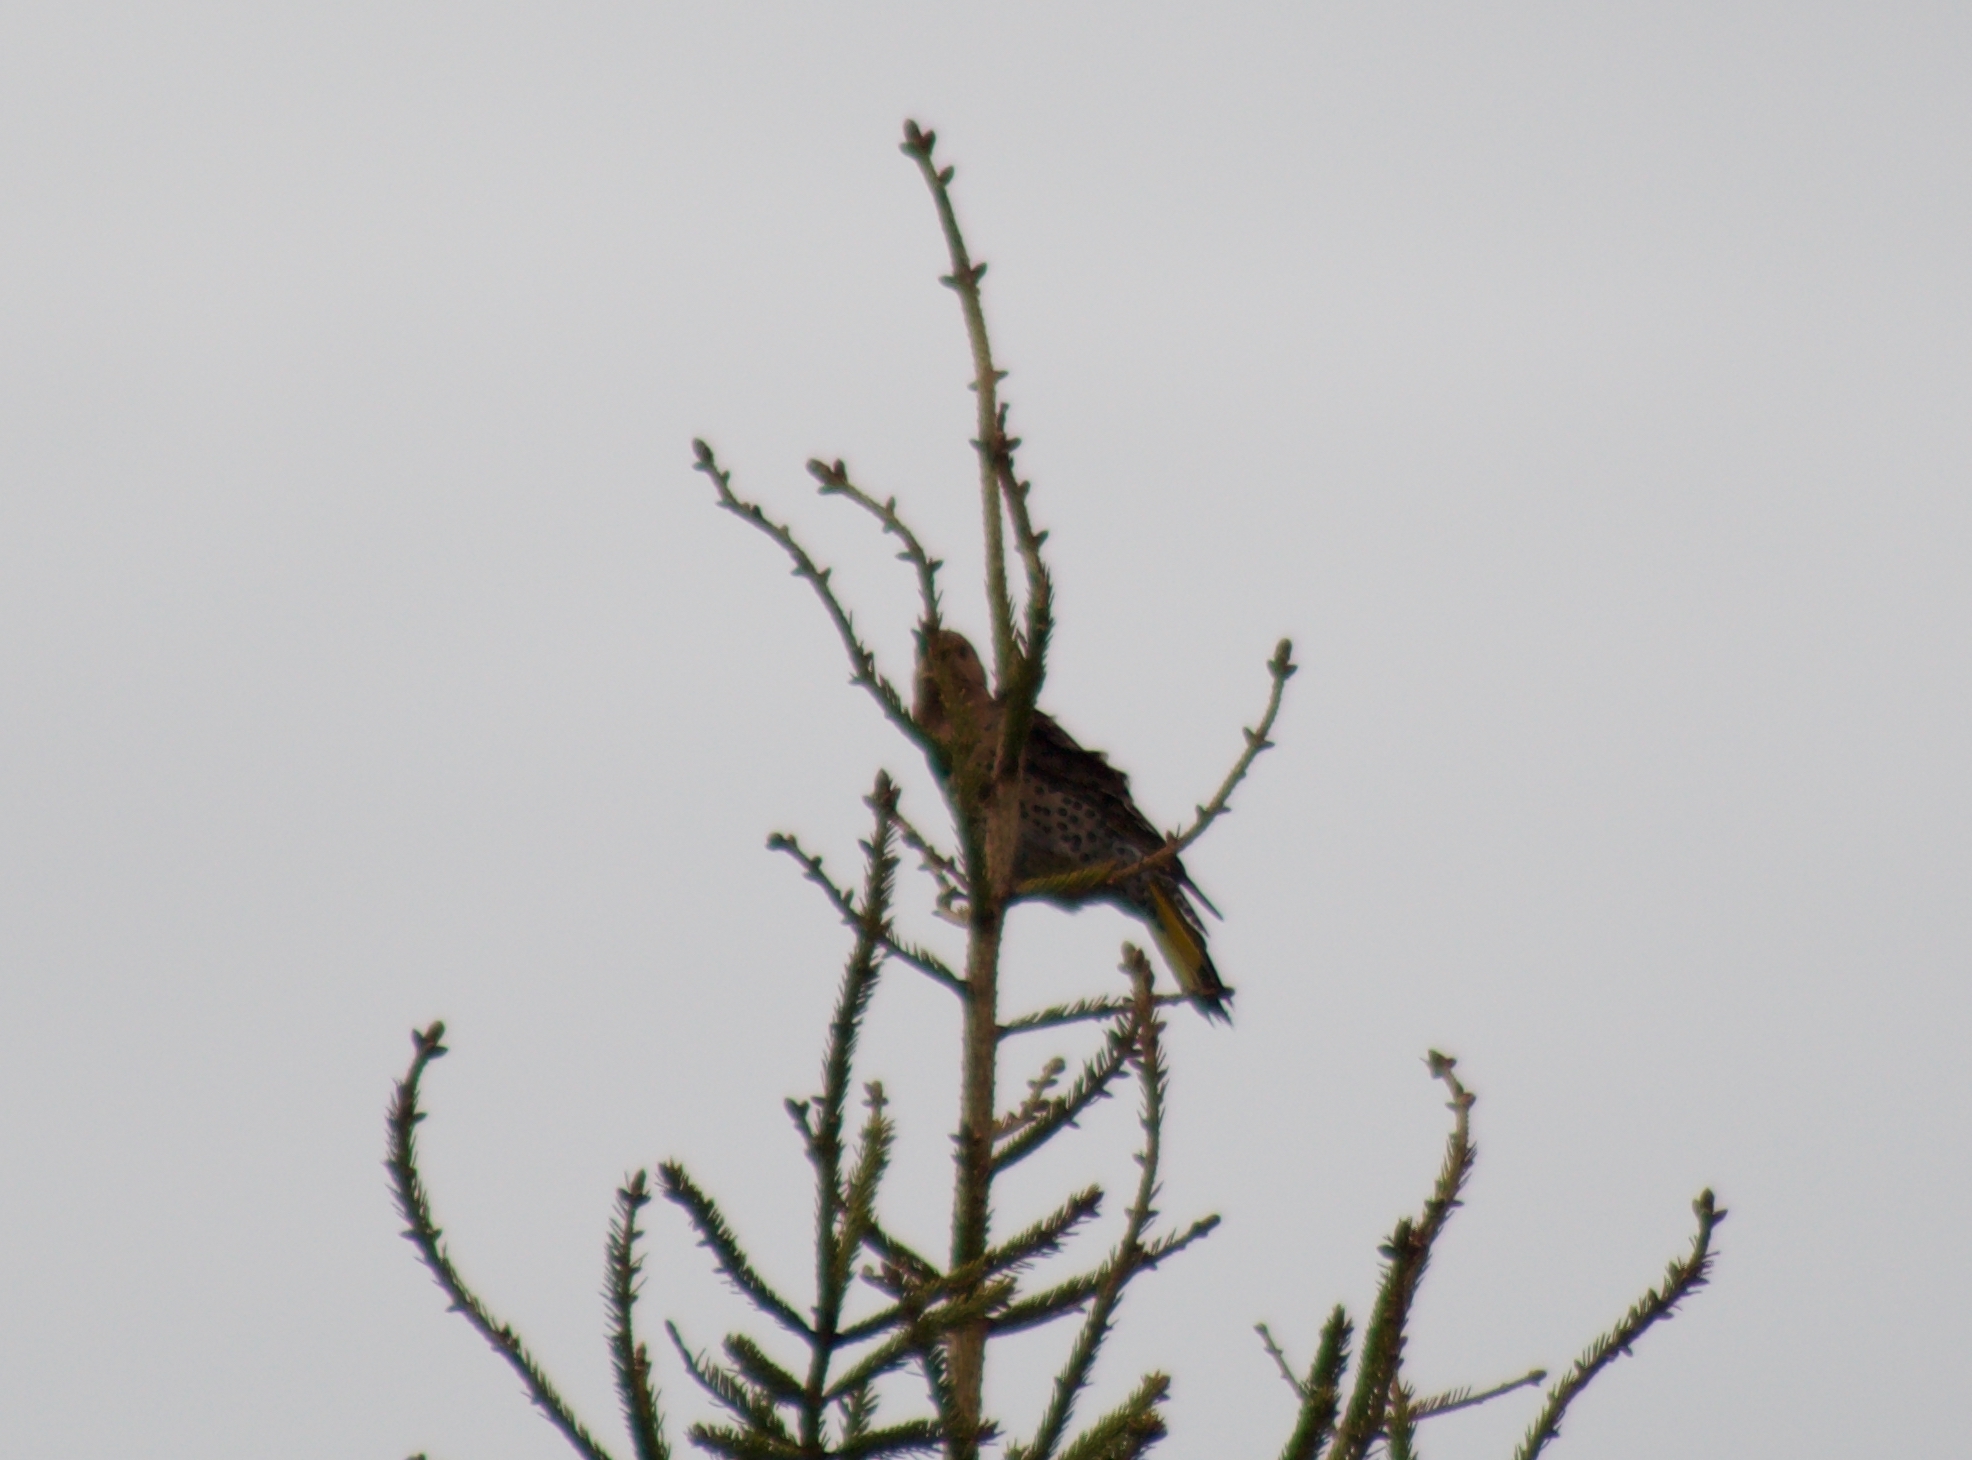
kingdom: Animalia
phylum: Chordata
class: Aves
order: Piciformes
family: Picidae
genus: Colaptes
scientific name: Colaptes auratus
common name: Northern flicker
